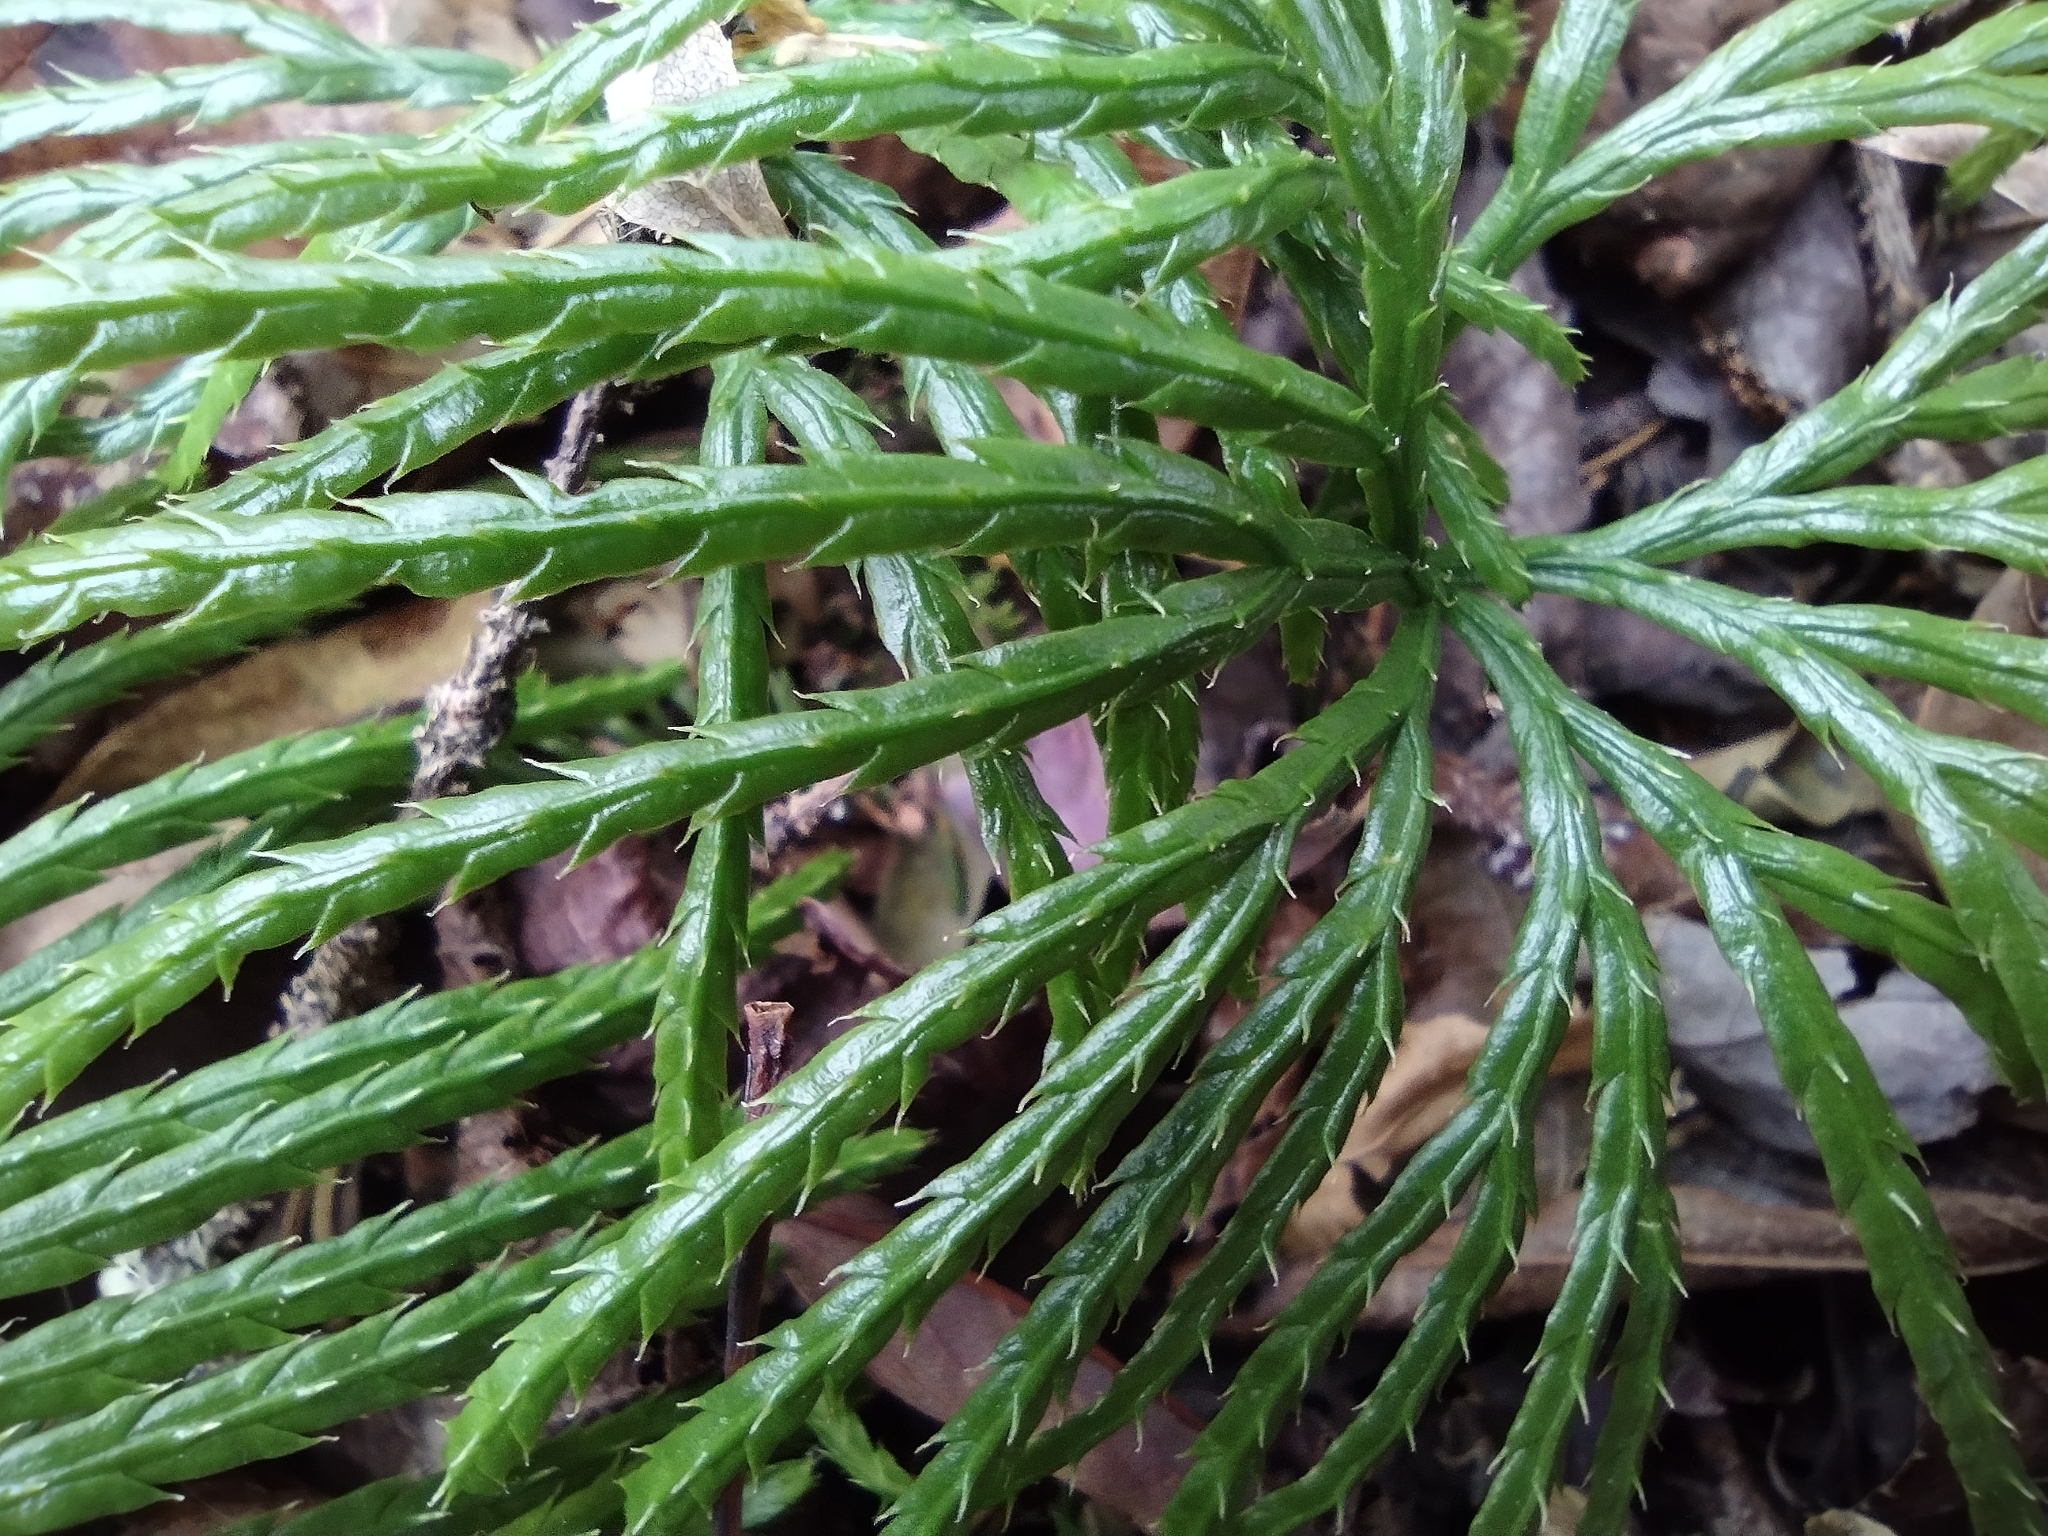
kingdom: Plantae
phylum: Tracheophyta
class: Lycopodiopsida
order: Lycopodiales
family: Lycopodiaceae
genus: Diphasiastrum
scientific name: Diphasiastrum digitatum
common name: Southern running-pine
